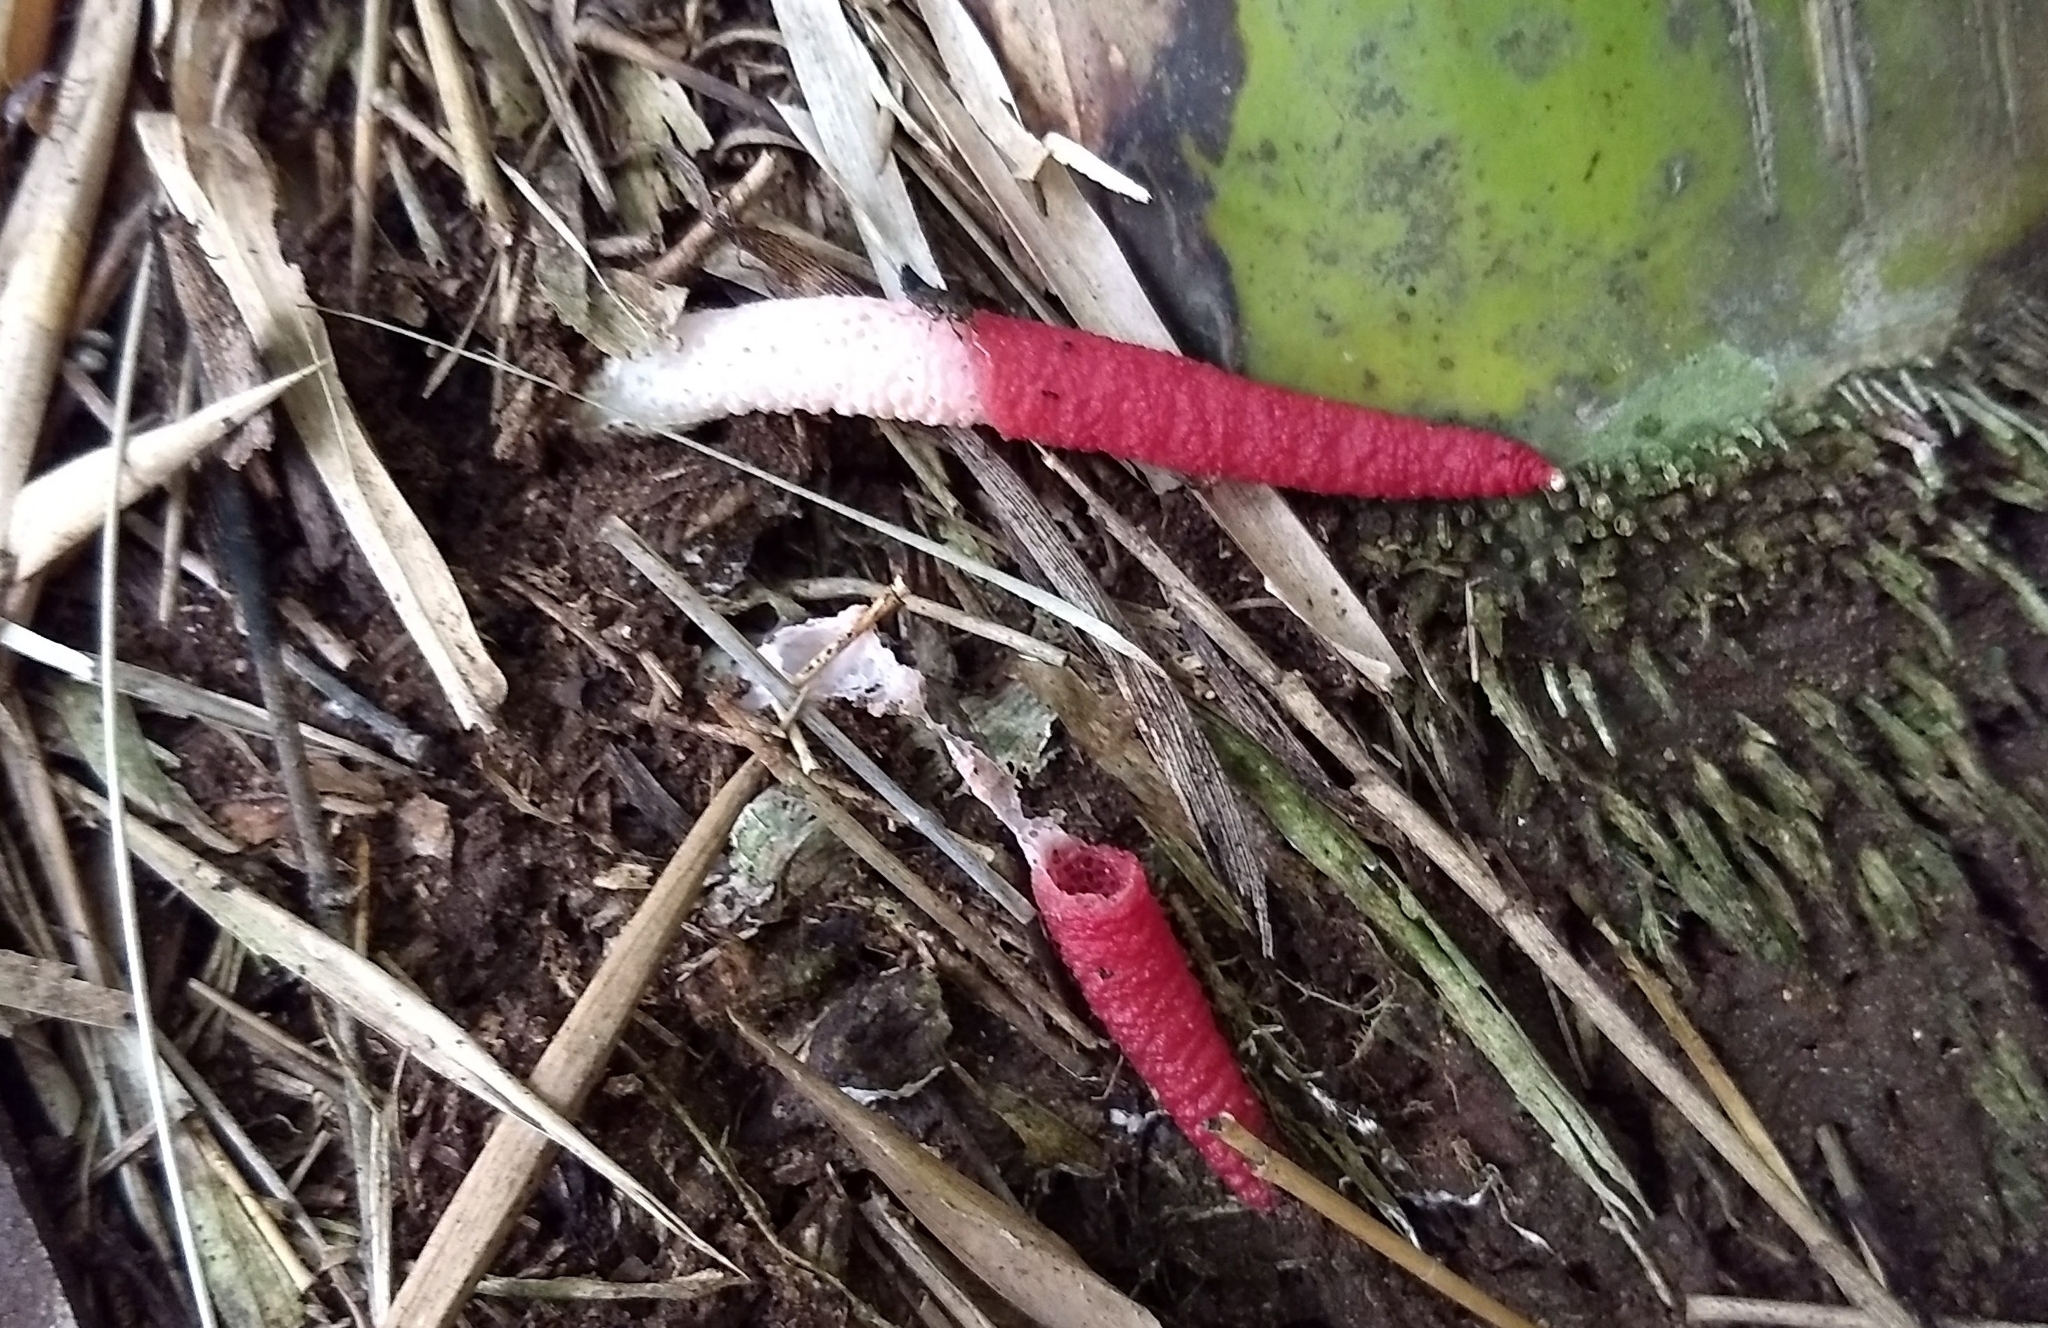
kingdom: Fungi
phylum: Basidiomycota
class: Agaricomycetes
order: Phallales
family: Phallaceae
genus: Mutinus
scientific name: Mutinus bambusinus
